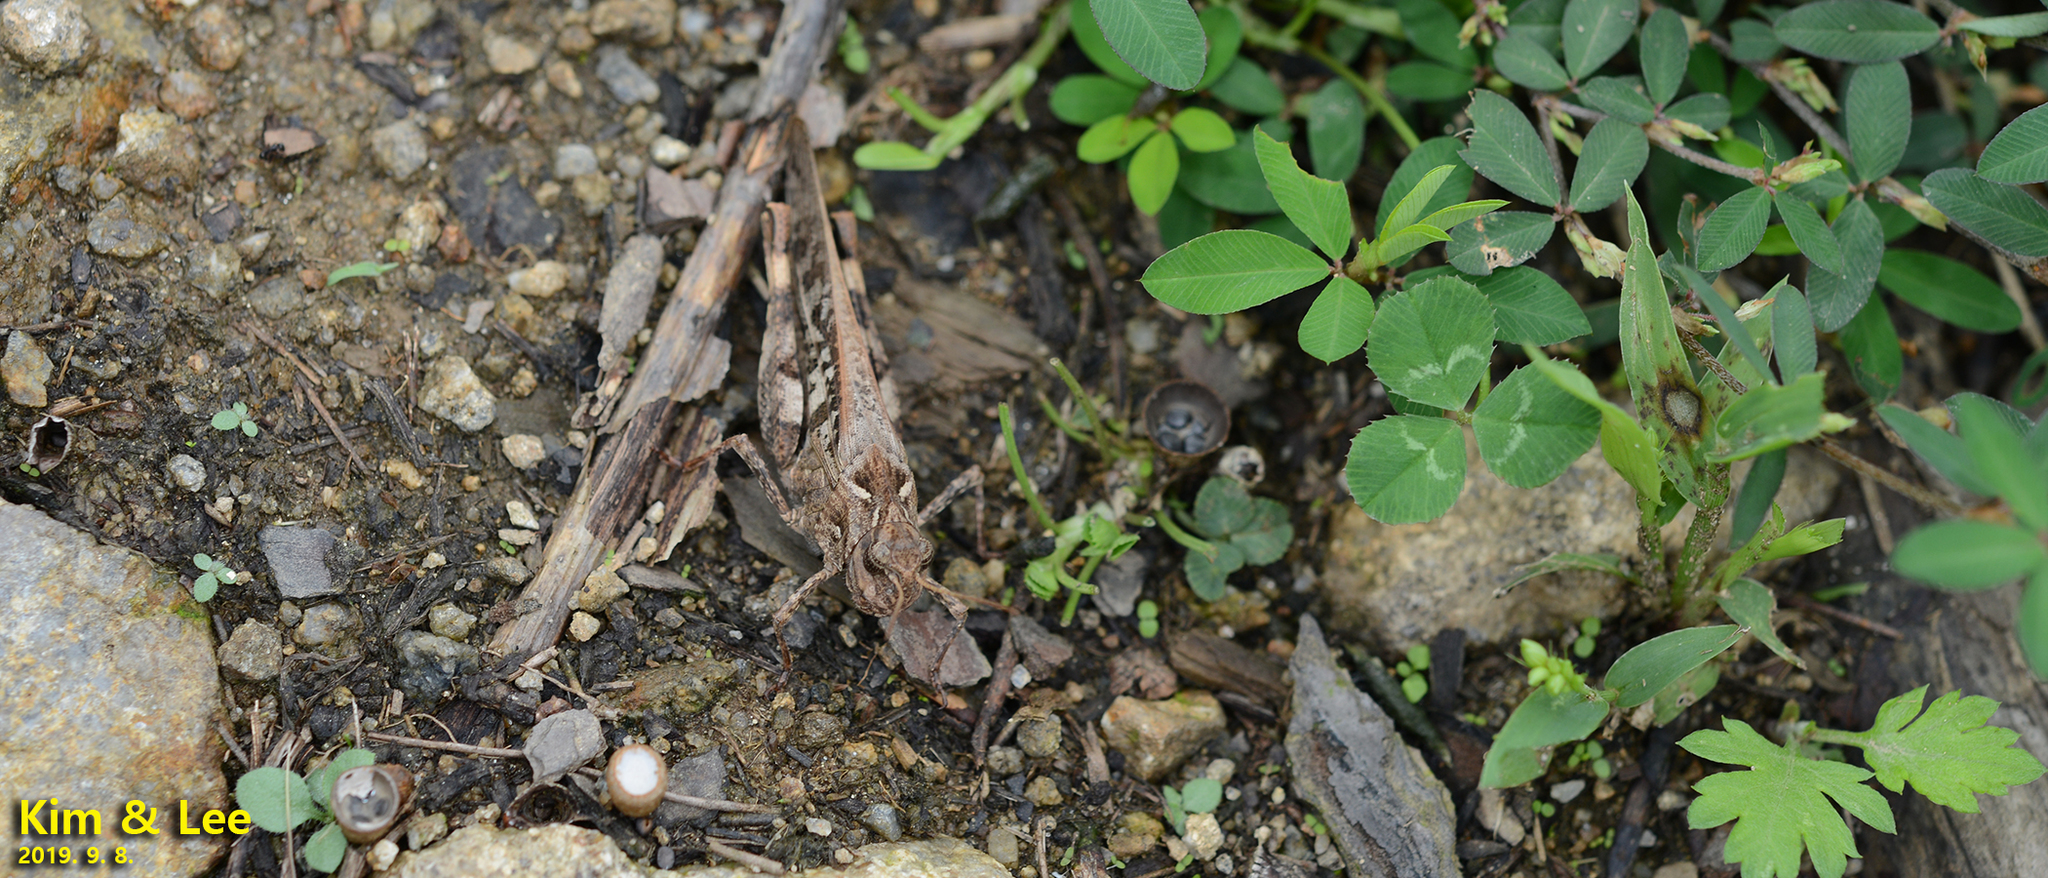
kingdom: Animalia
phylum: Arthropoda
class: Insecta
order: Orthoptera
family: Acrididae
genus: Oedaleus
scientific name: Oedaleus infernalis
